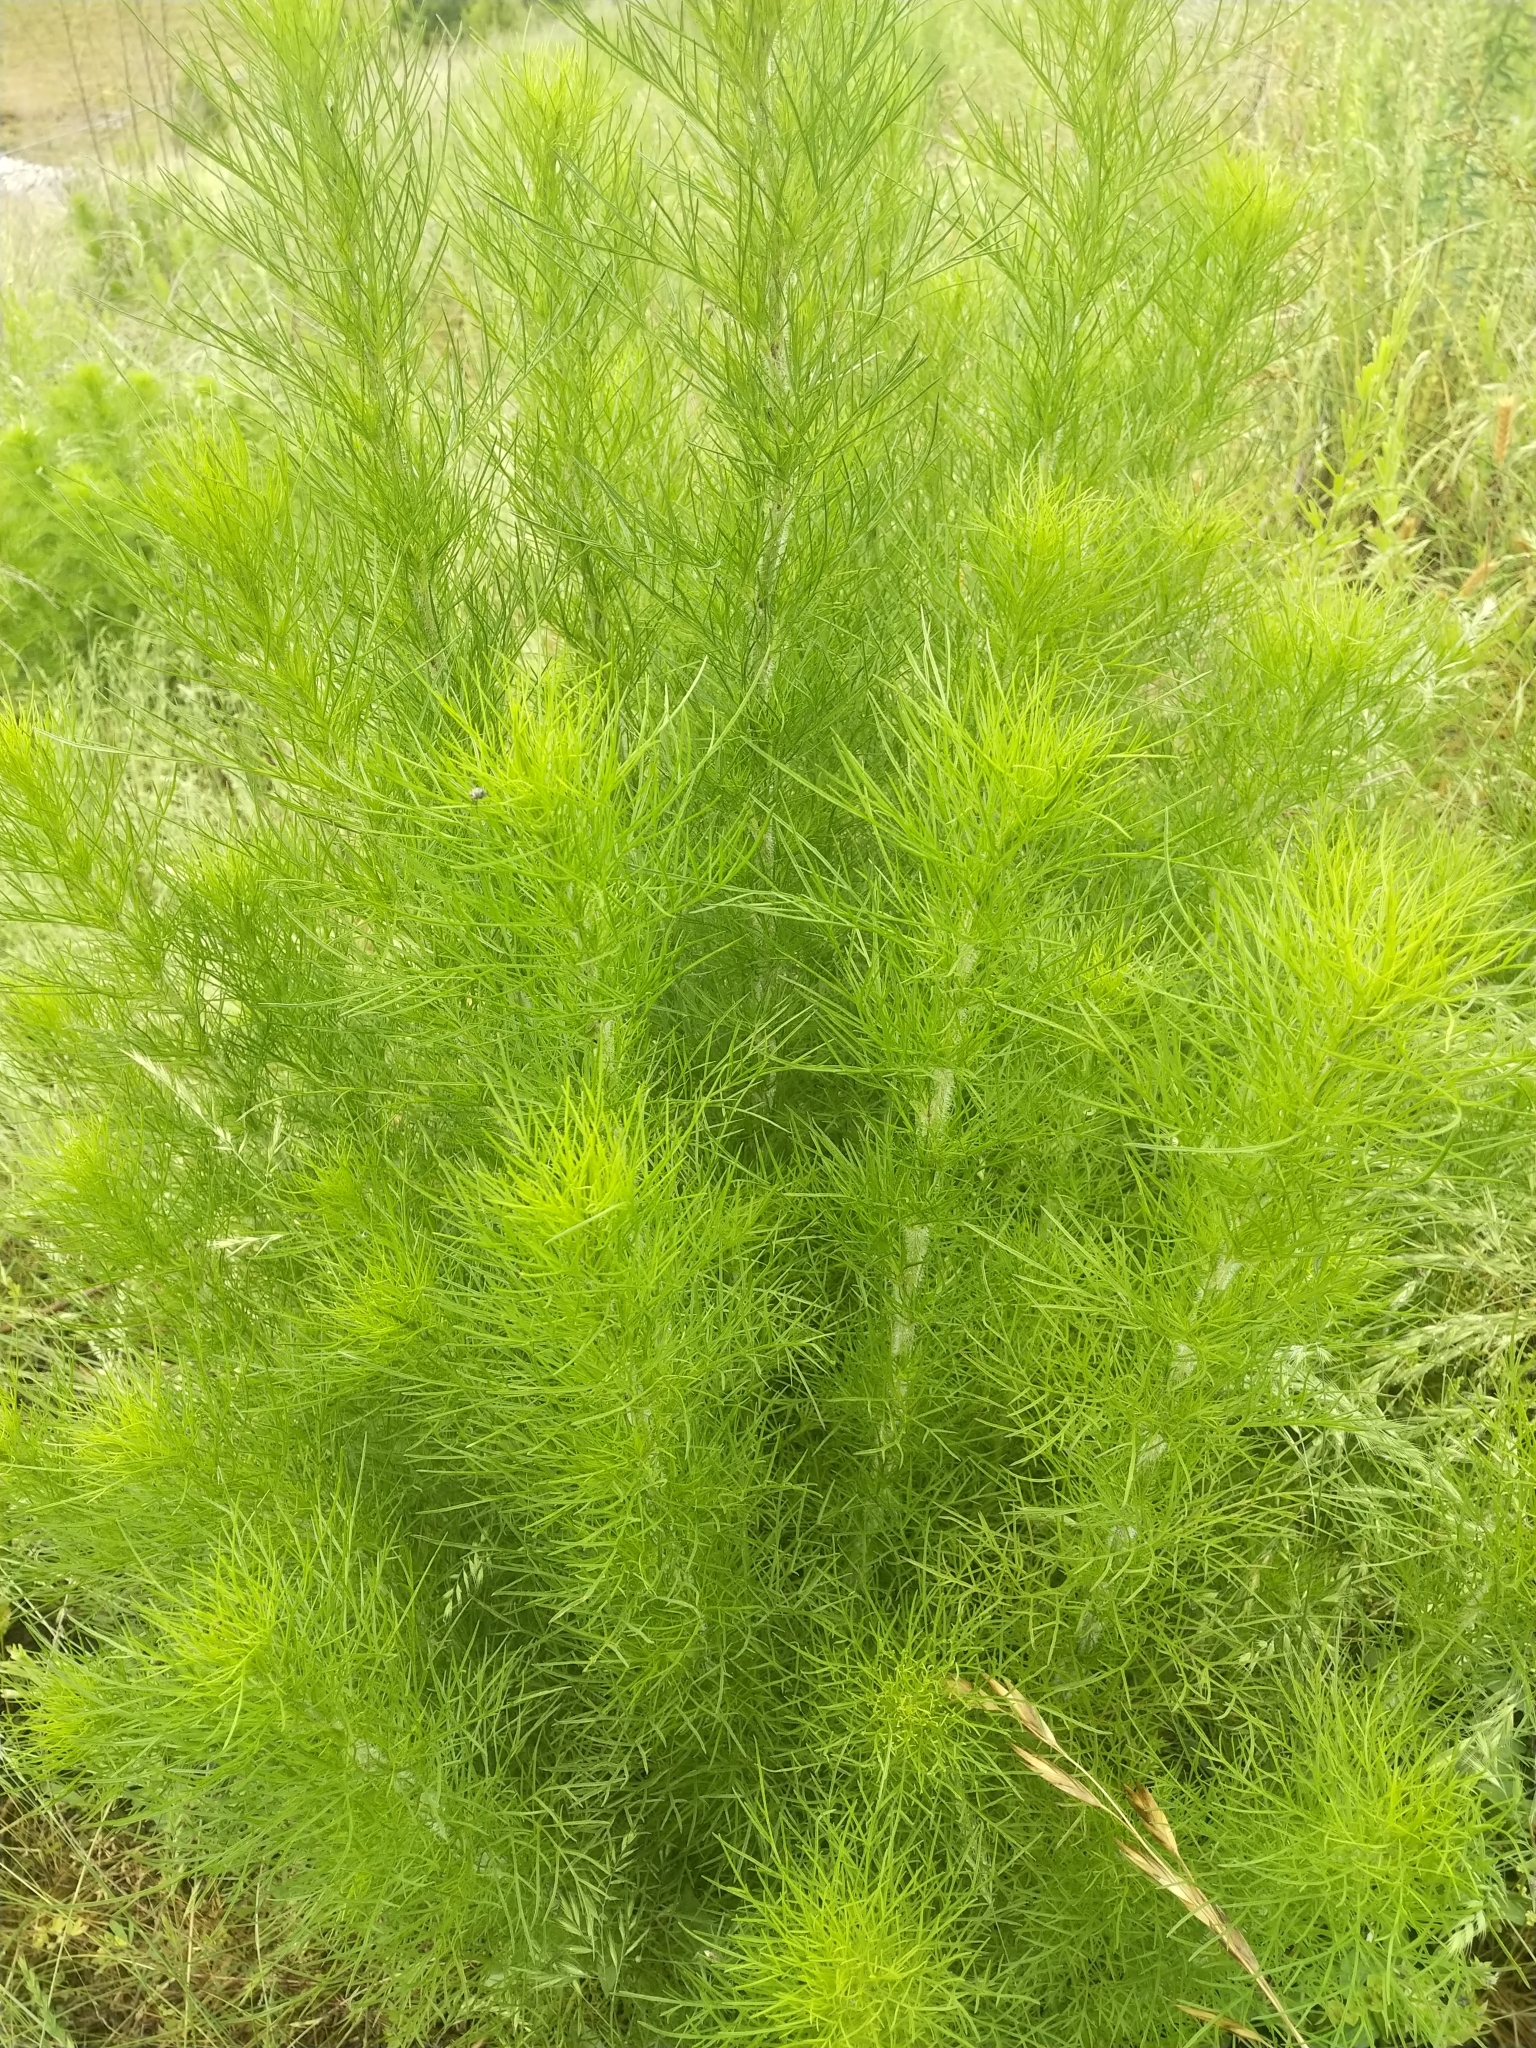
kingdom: Plantae
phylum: Tracheophyta
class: Magnoliopsida
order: Asterales
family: Asteraceae
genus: Eupatorium
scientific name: Eupatorium capillifolium
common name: Dog-fennel
